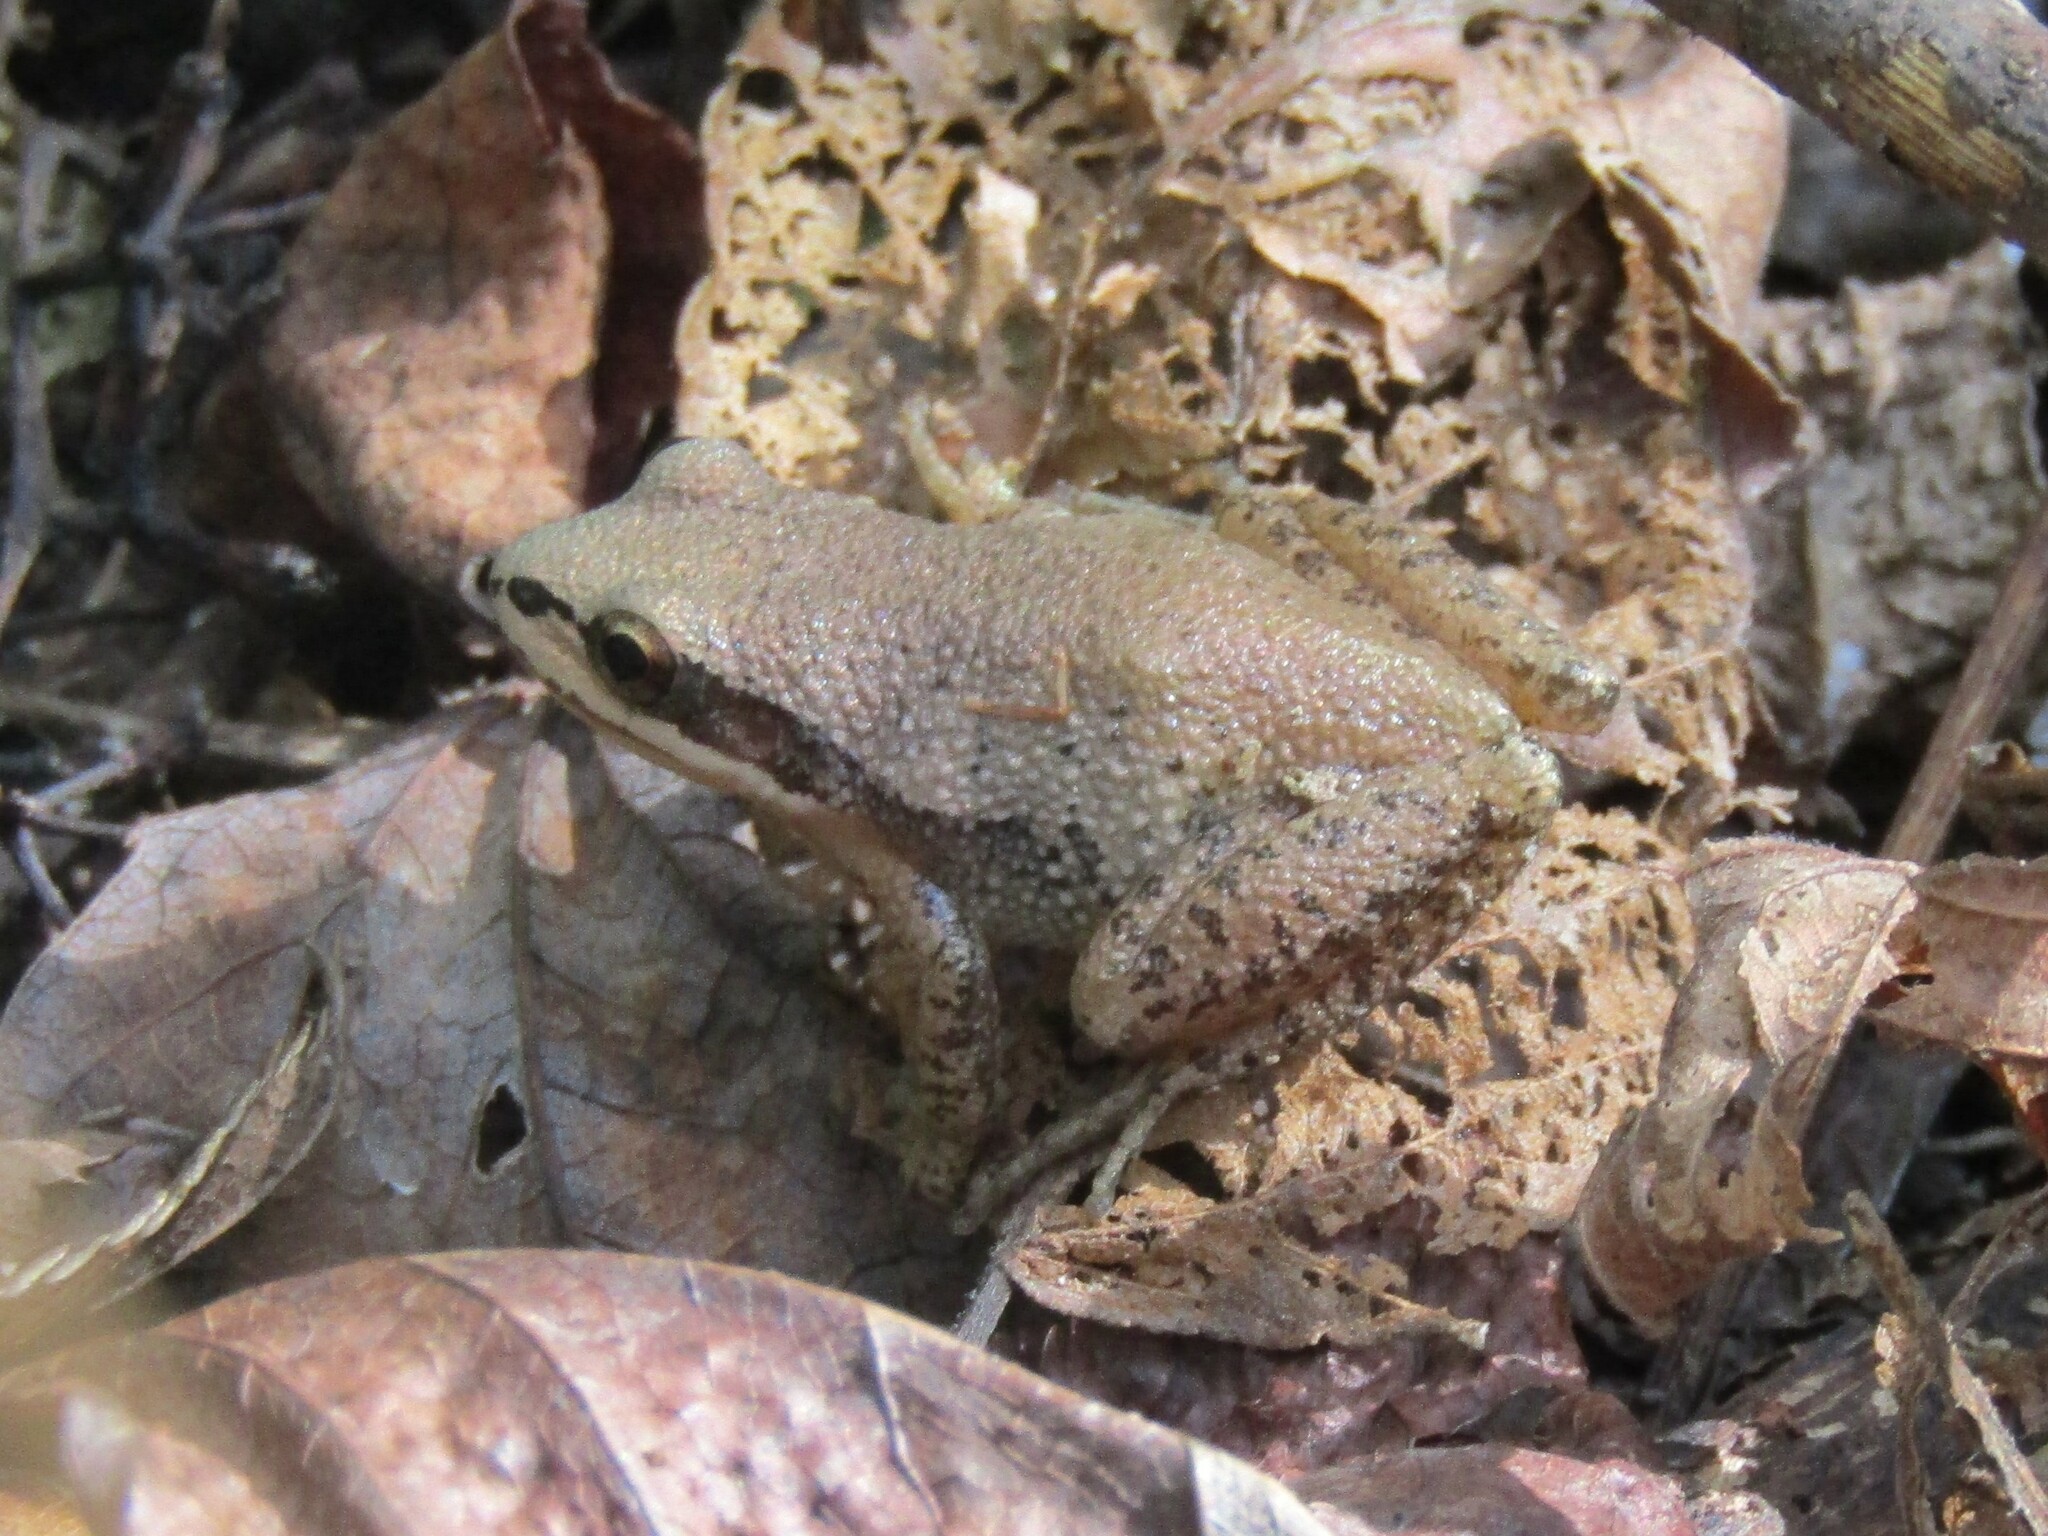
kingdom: Animalia
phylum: Chordata
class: Amphibia
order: Anura
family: Hylidae
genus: Pseudacris
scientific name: Pseudacris feriarum
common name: Upland chorus frog
